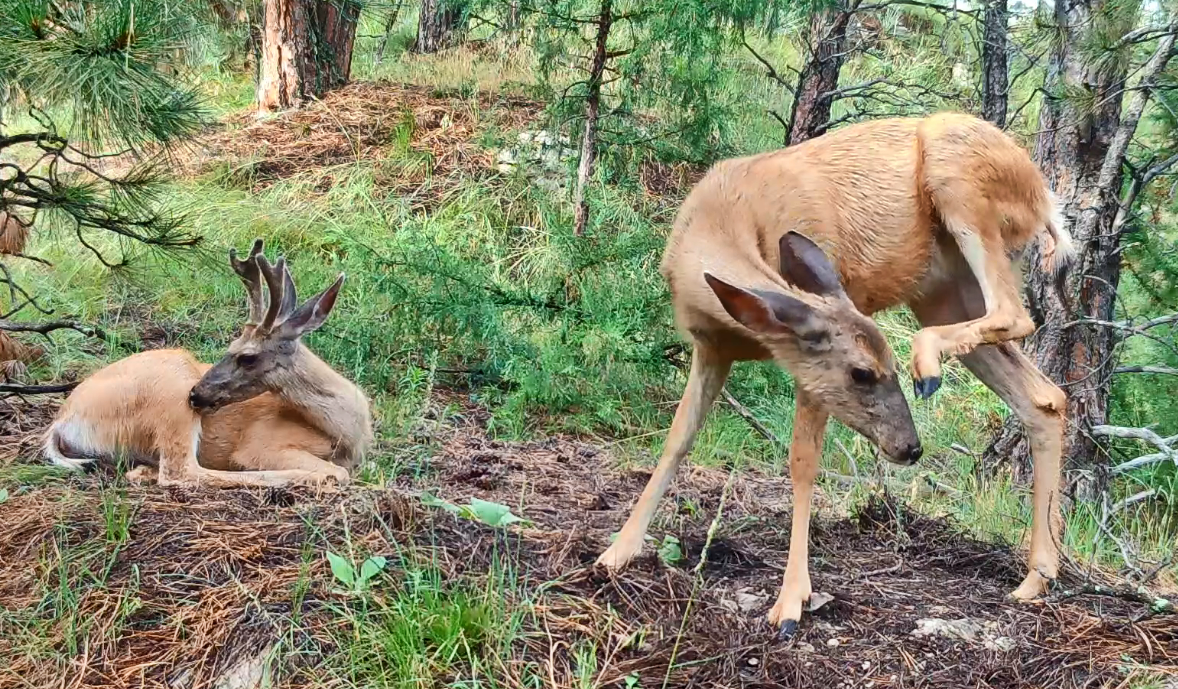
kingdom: Animalia
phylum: Chordata
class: Mammalia
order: Artiodactyla
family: Cervidae
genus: Odocoileus
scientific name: Odocoileus hemionus
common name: Mule deer
